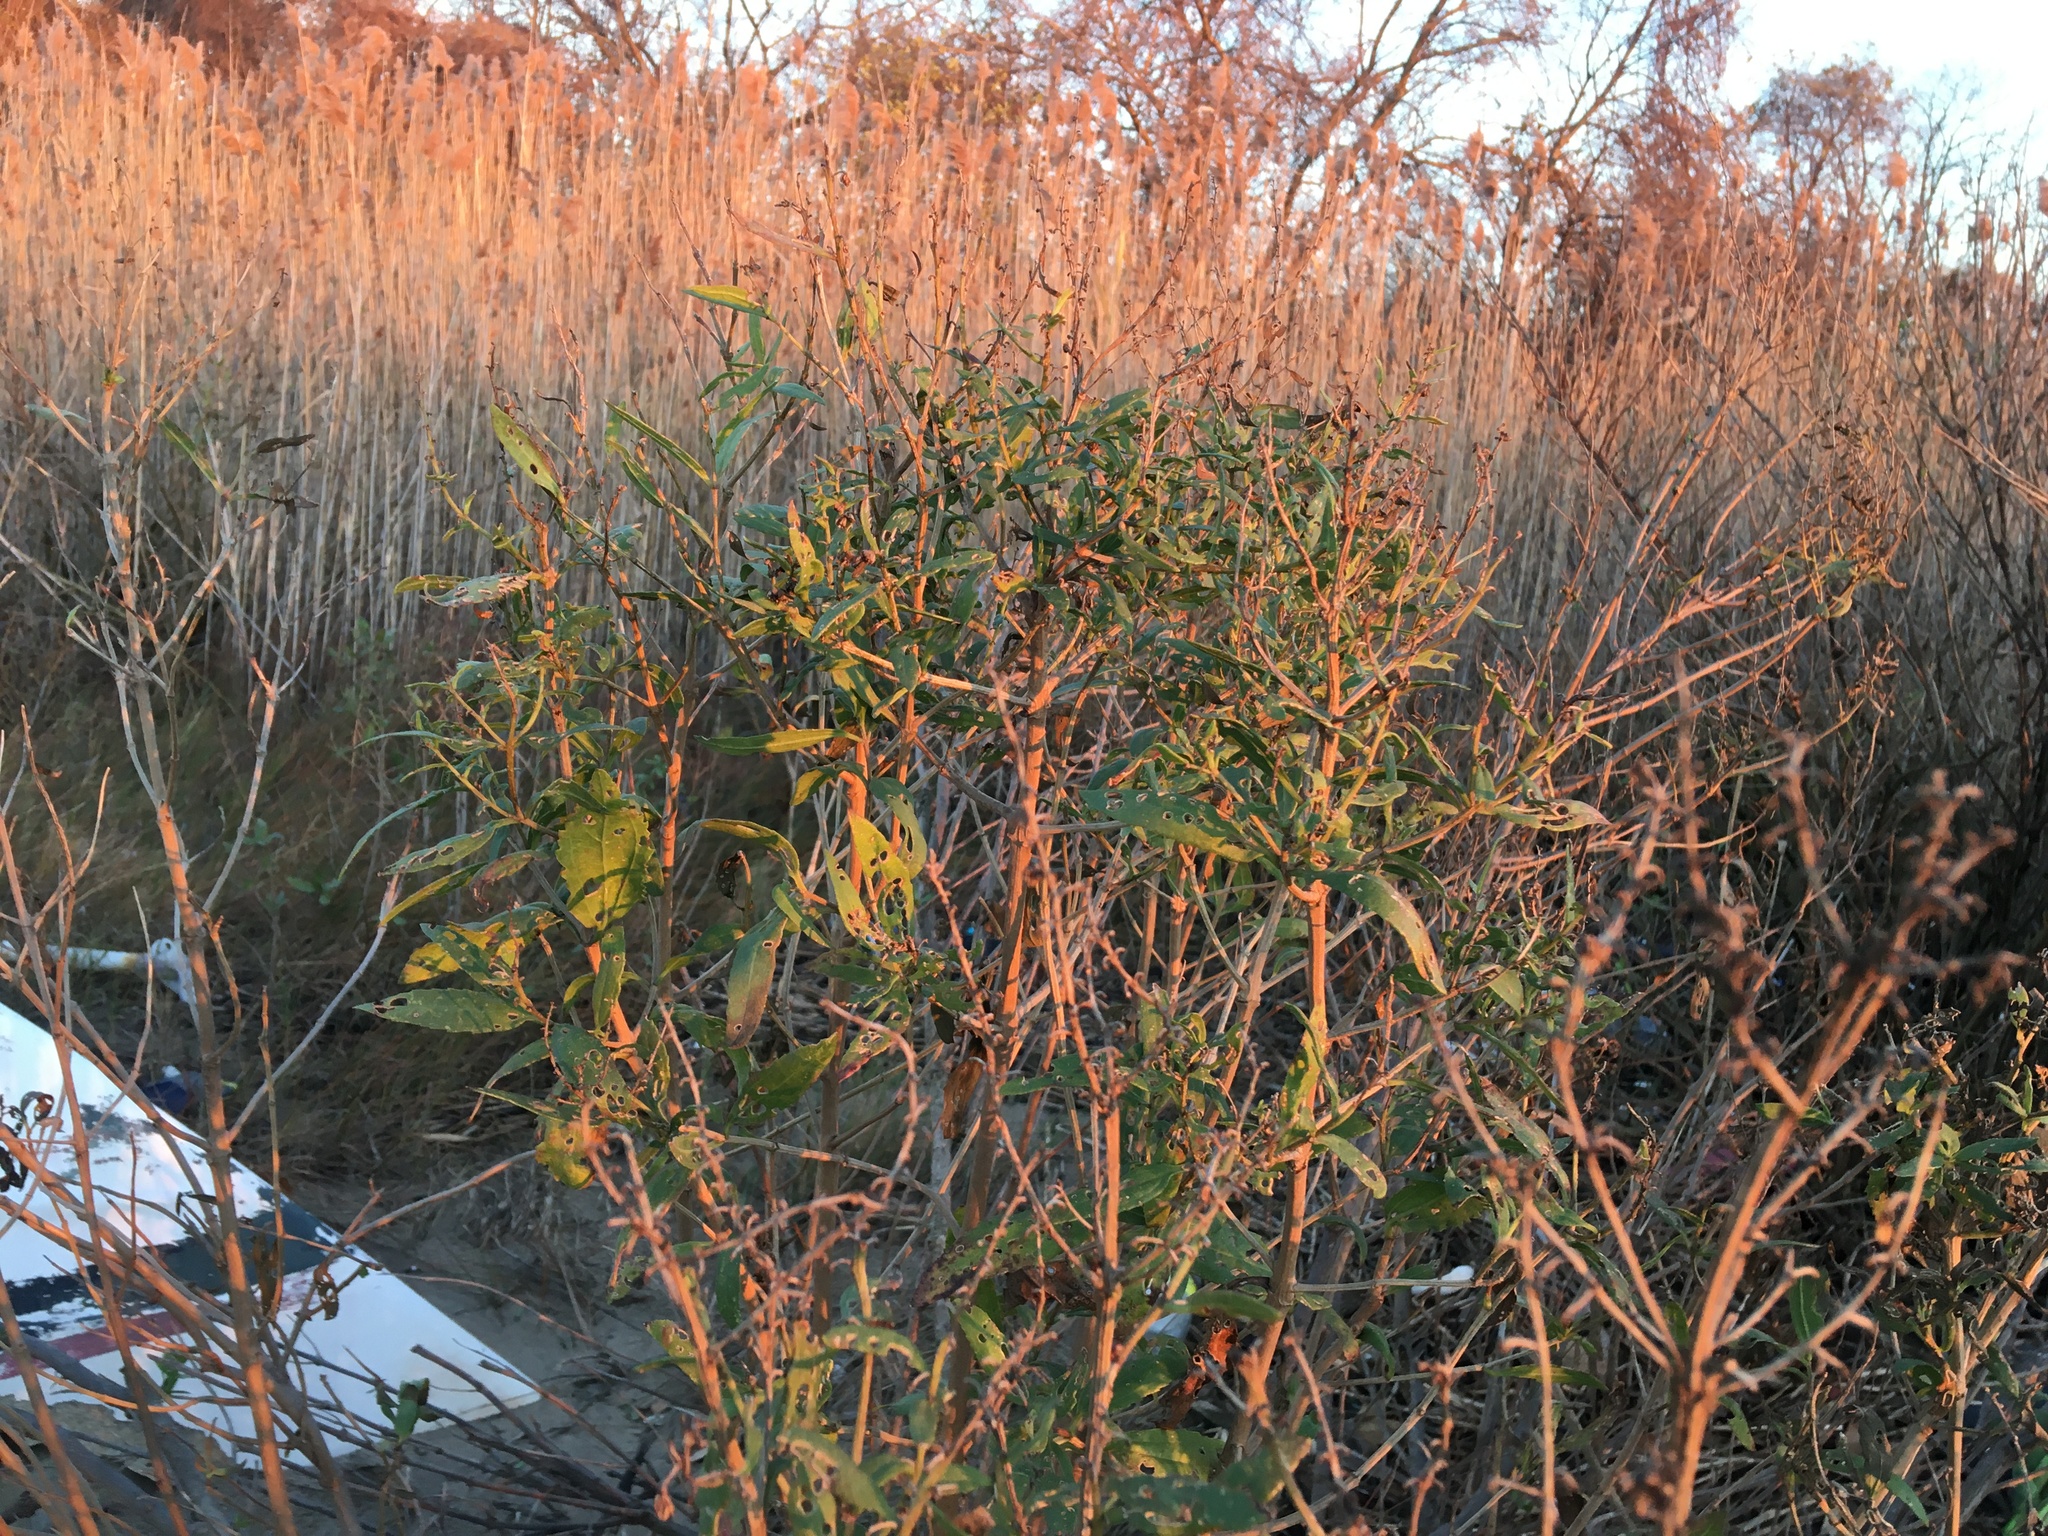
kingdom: Plantae
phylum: Tracheophyta
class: Magnoliopsida
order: Asterales
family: Asteraceae
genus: Iva
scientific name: Iva frutescens
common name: Big-leaved marsh-elder
